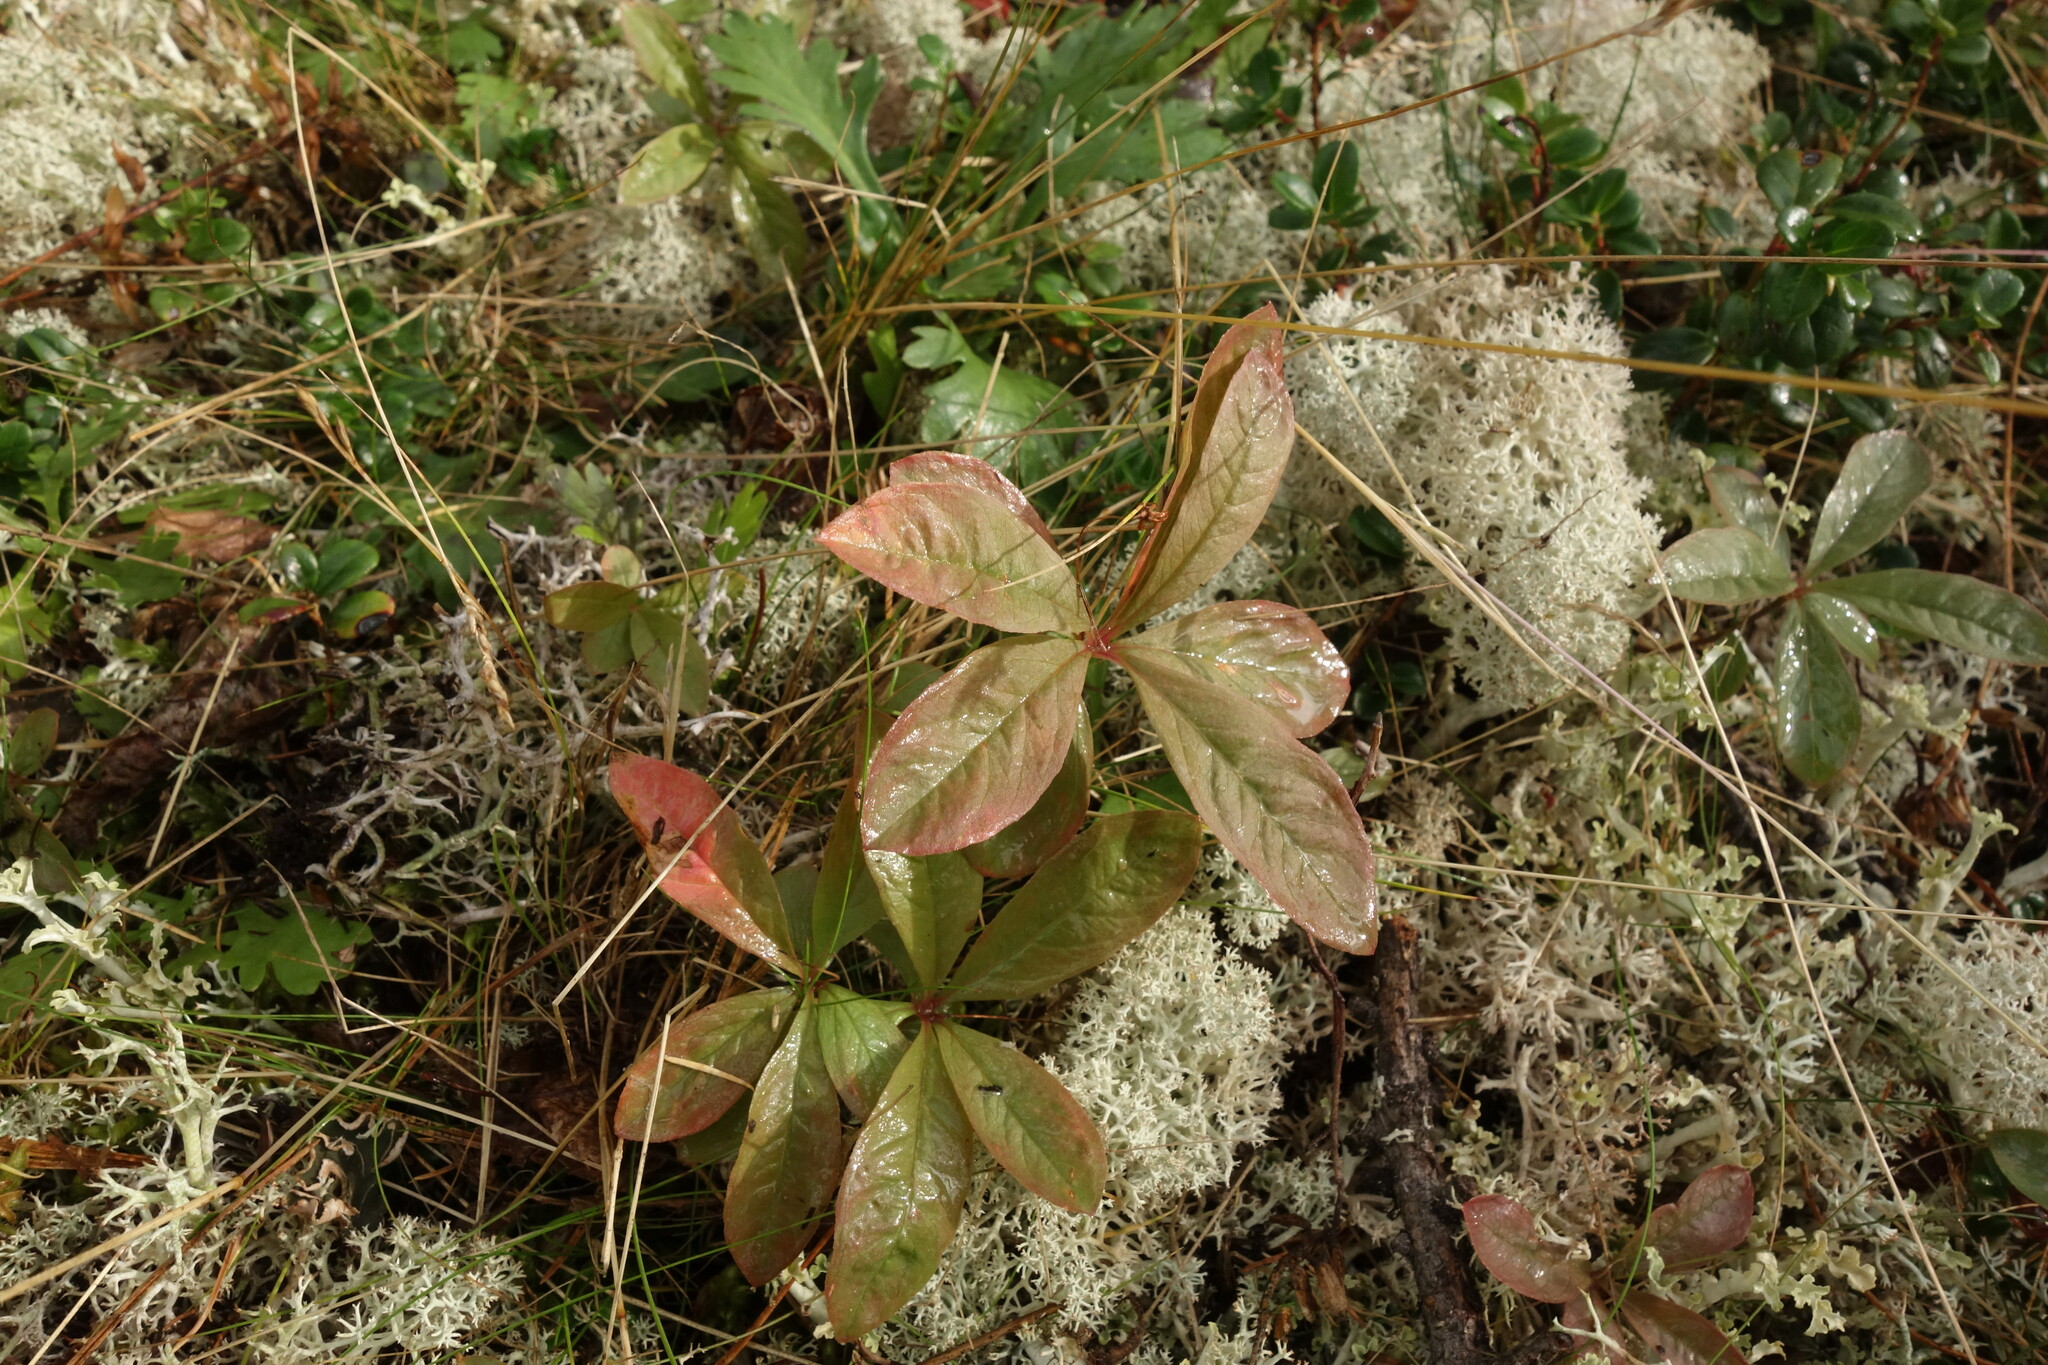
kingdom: Plantae
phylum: Tracheophyta
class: Magnoliopsida
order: Ericales
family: Primulaceae
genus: Lysimachia
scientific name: Lysimachia europaea
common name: Arctic starflower
